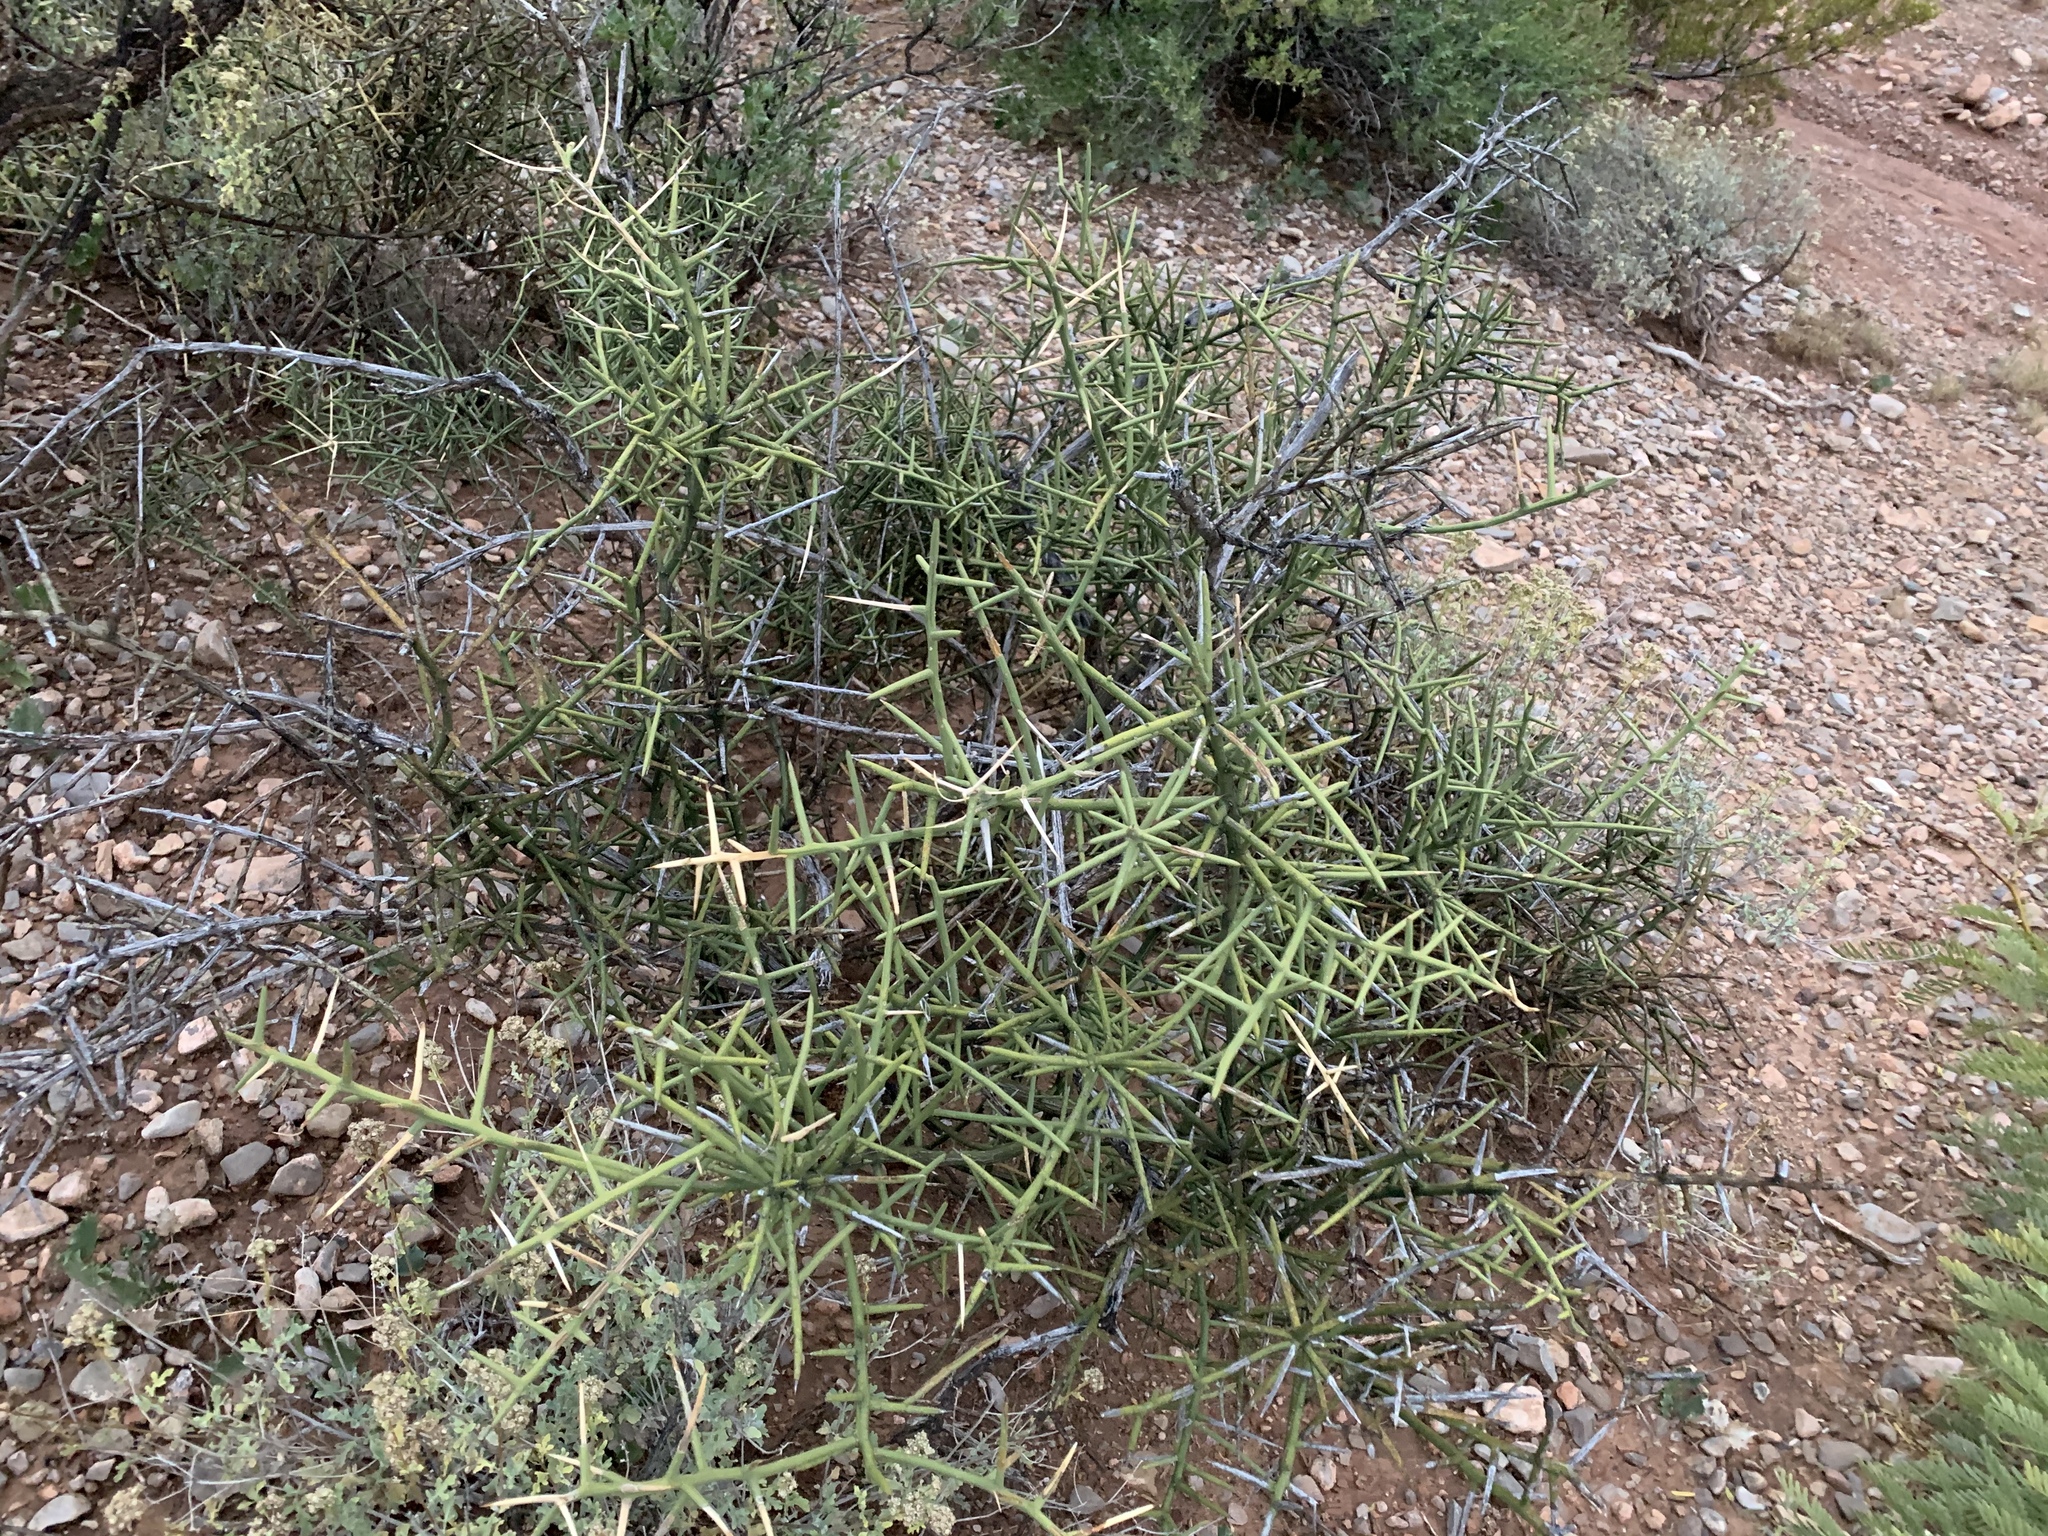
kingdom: Plantae
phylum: Tracheophyta
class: Magnoliopsida
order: Brassicales
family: Koeberliniaceae
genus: Koeberlinia
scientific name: Koeberlinia spinosa
